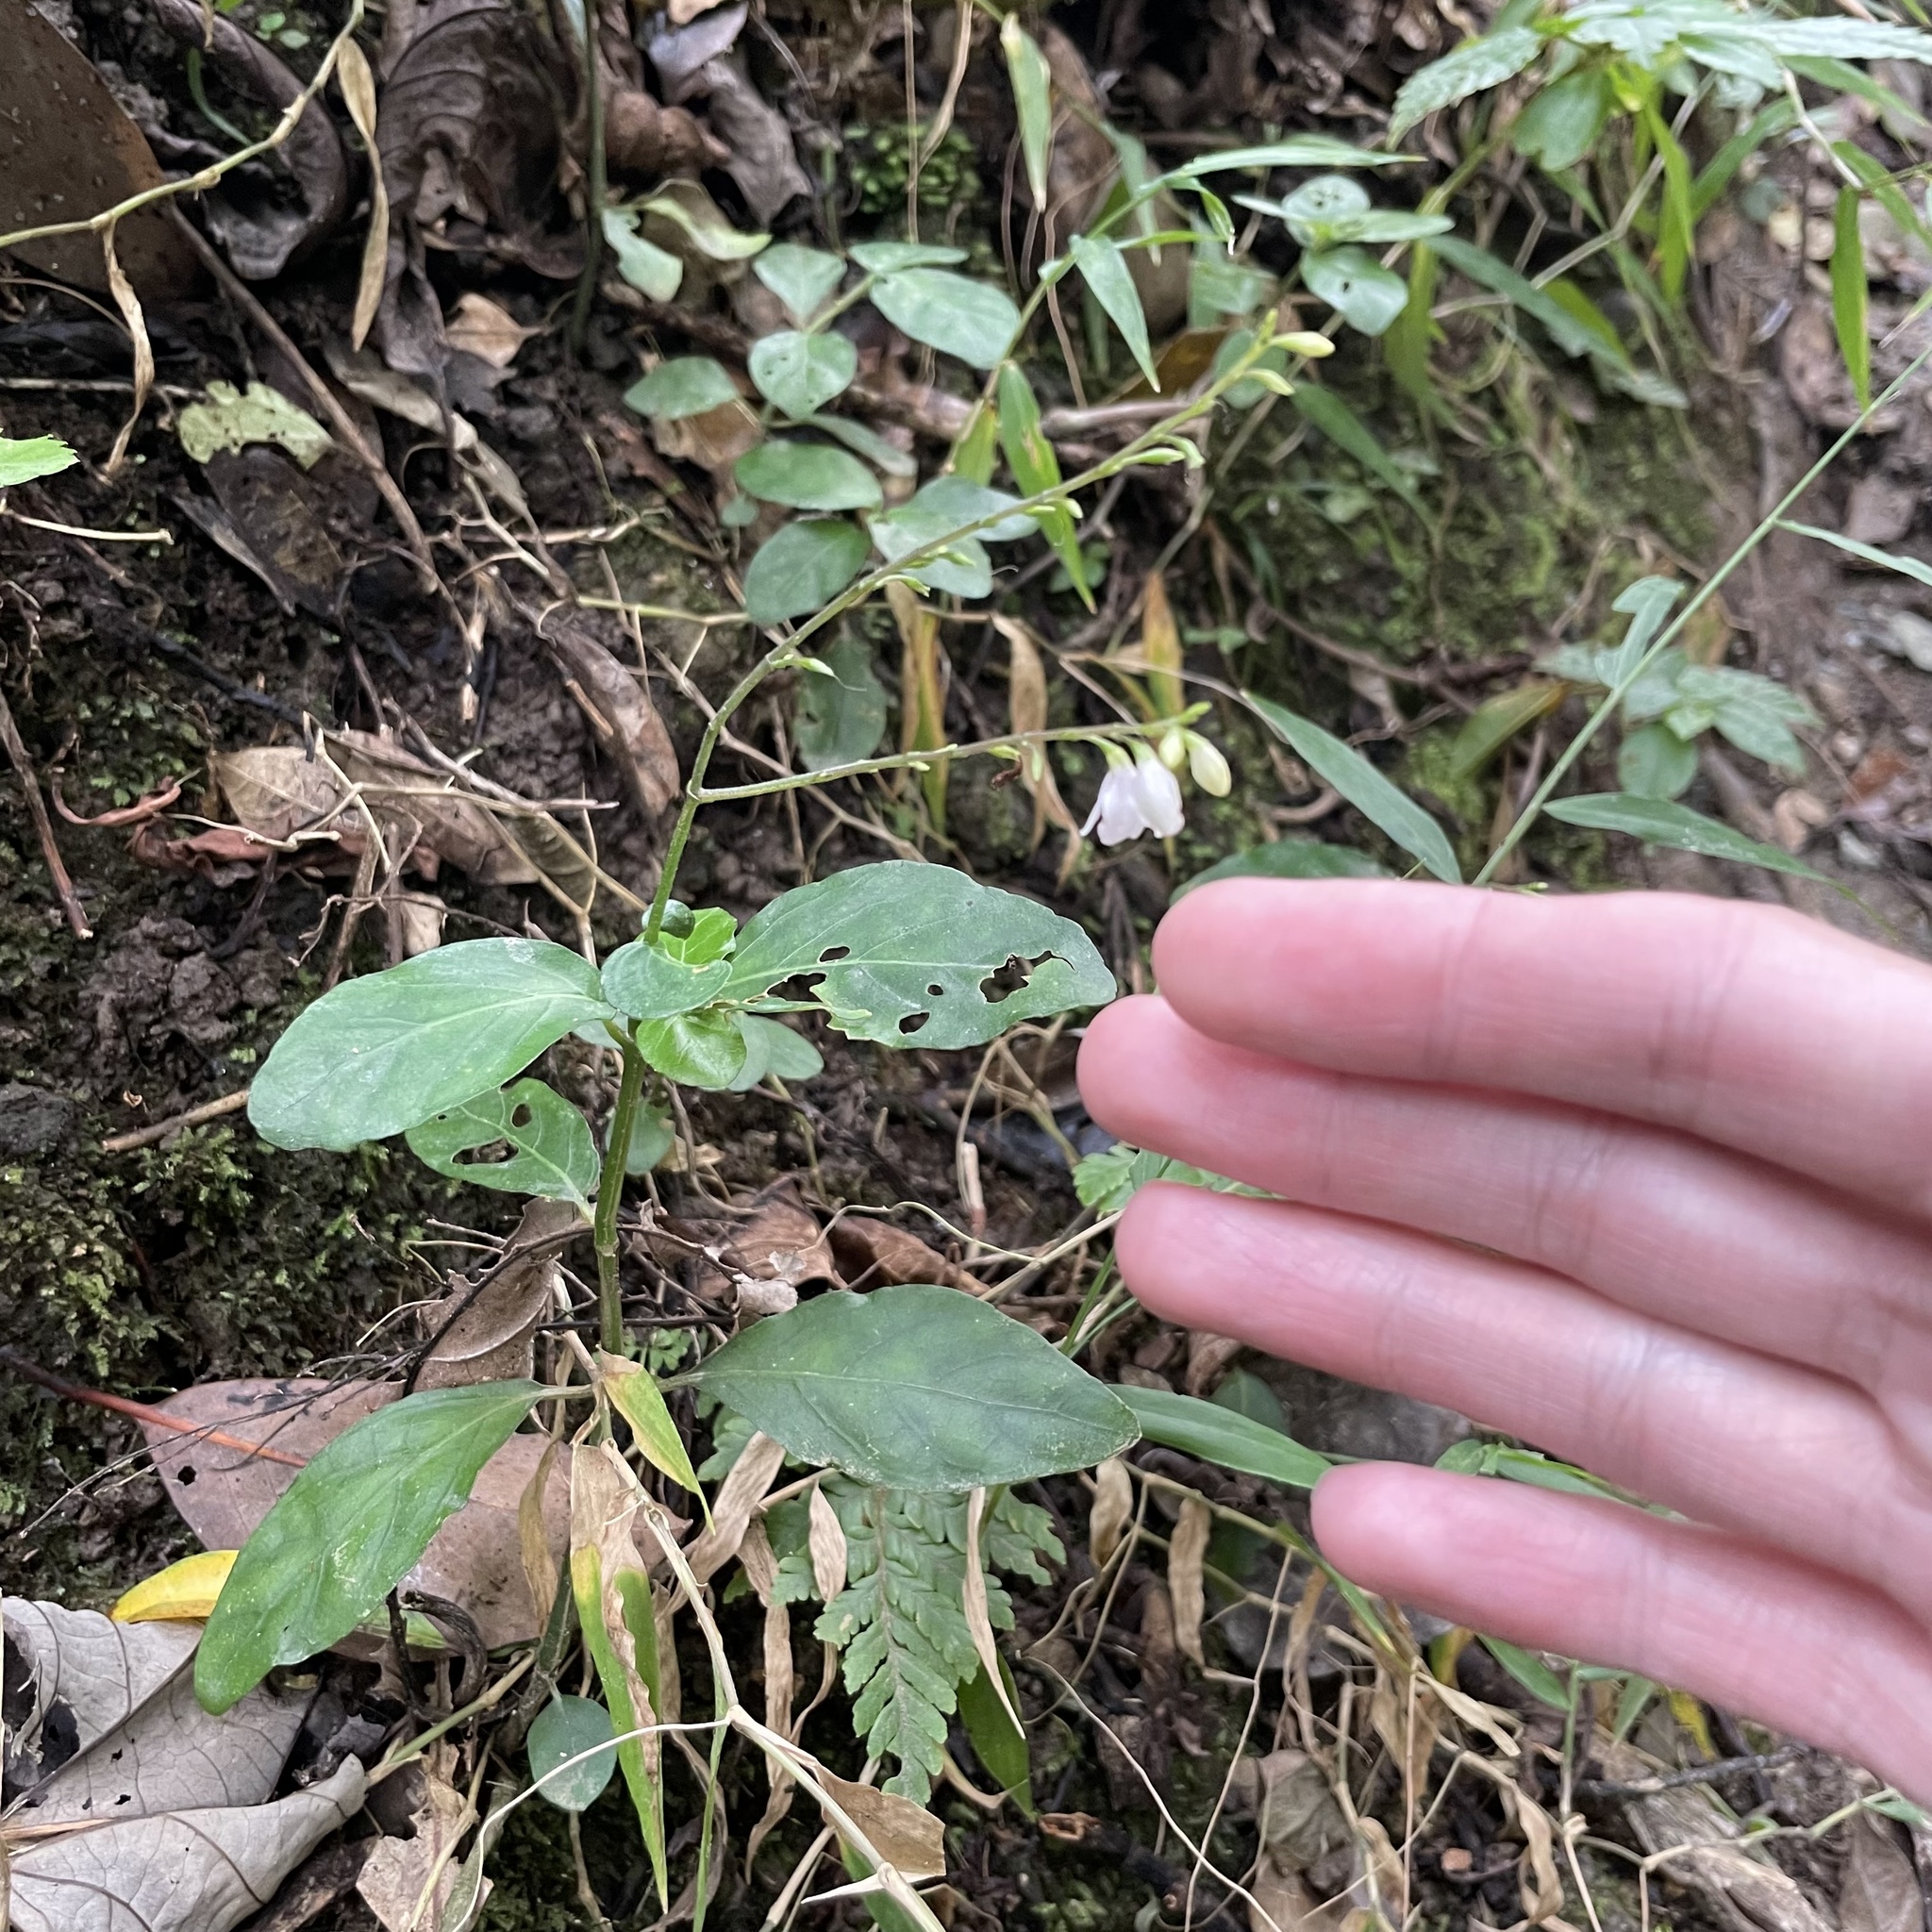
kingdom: Plantae
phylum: Tracheophyta
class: Magnoliopsida
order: Lamiales
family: Acanthaceae
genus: Codonacanthus
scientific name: Codonacanthus pauciflorus
